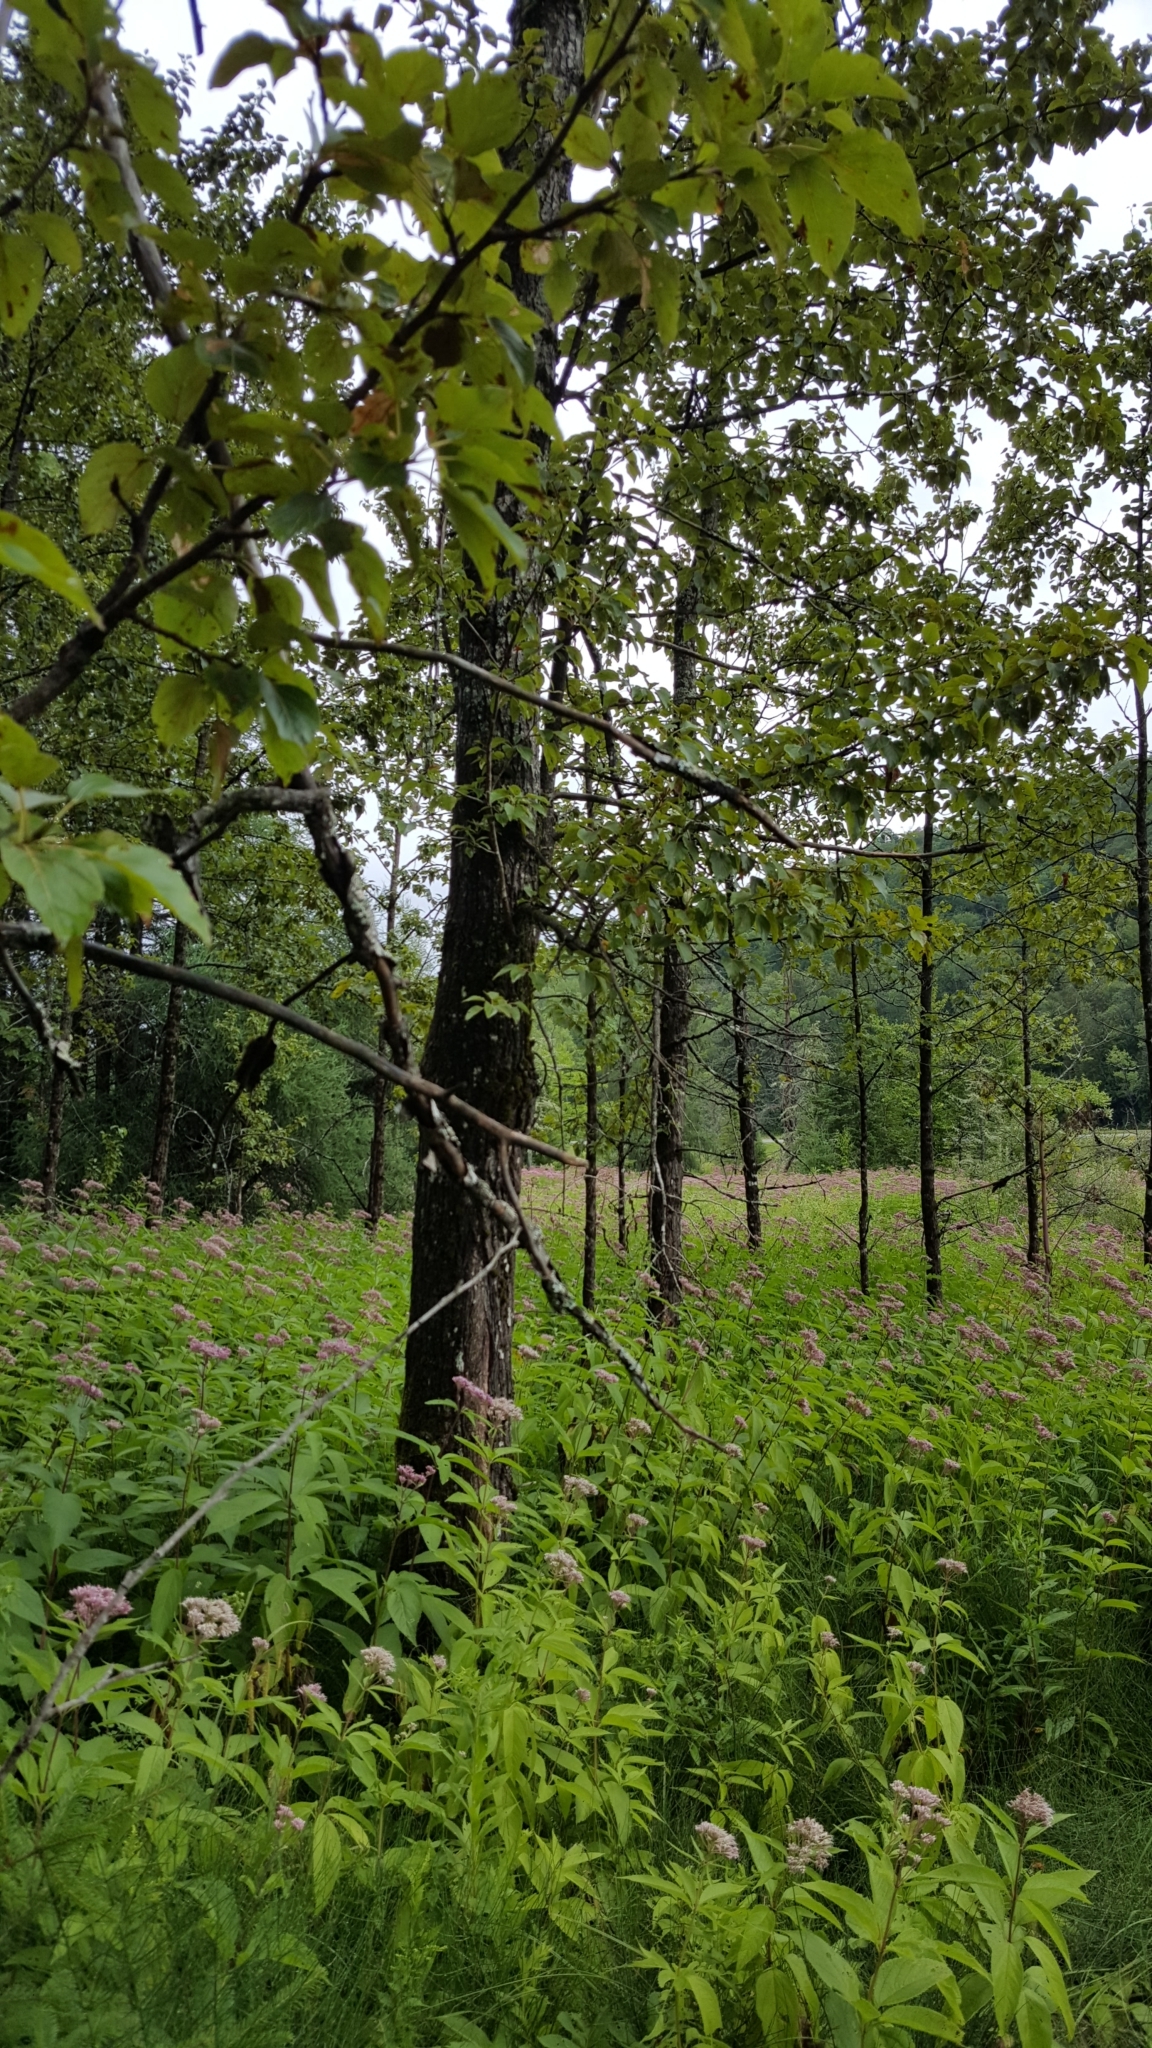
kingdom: Plantae
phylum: Tracheophyta
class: Magnoliopsida
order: Malpighiales
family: Salicaceae
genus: Populus
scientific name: Populus balsamifera
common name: Balsam poplar
